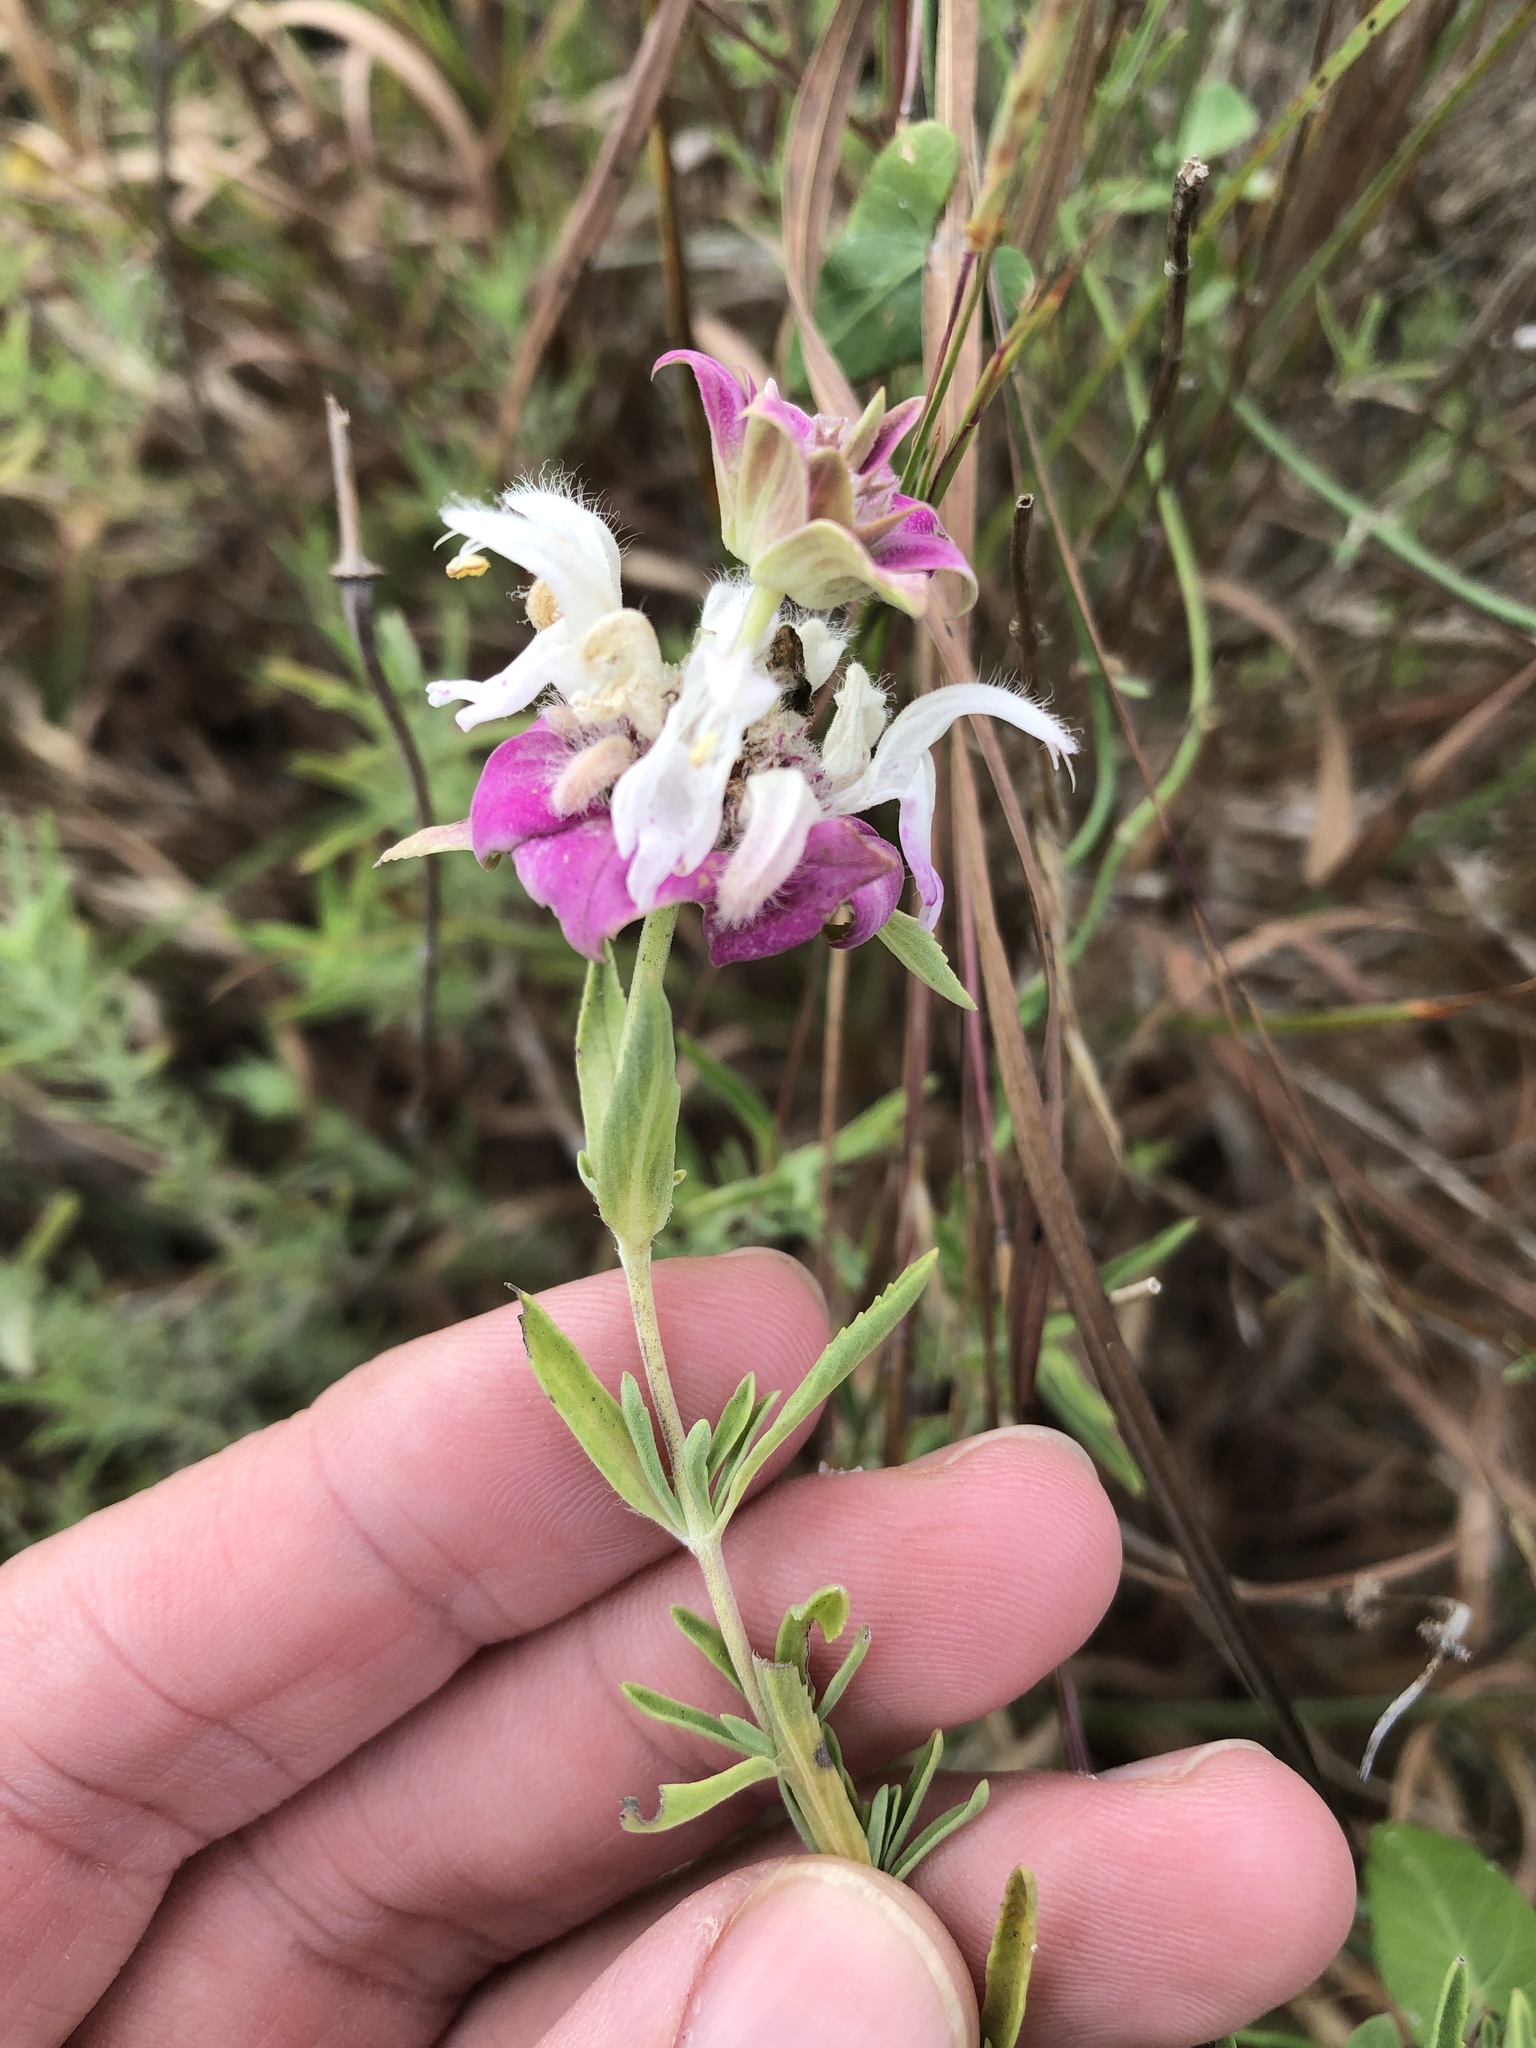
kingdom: Plantae
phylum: Tracheophyta
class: Magnoliopsida
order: Lamiales
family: Lamiaceae
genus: Monarda
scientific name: Monarda fruticulosa
